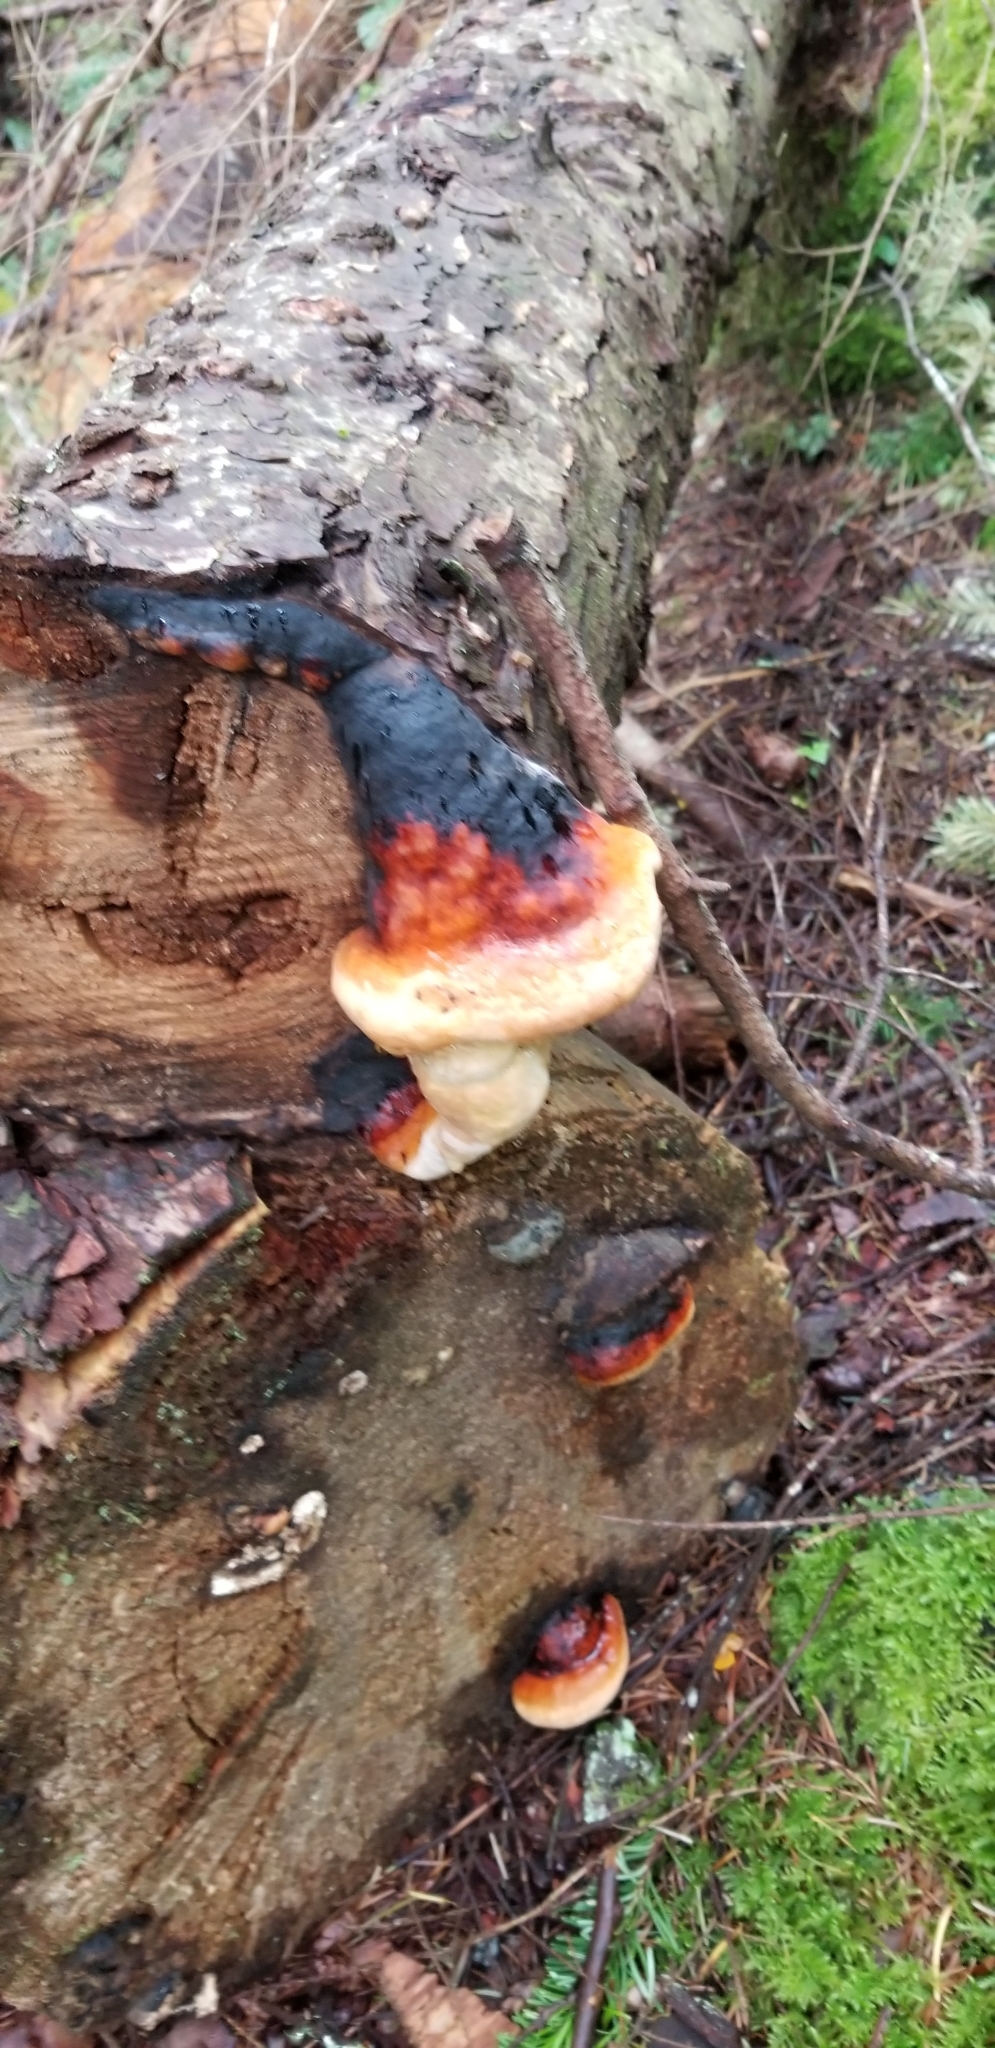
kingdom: Fungi
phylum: Basidiomycota
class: Agaricomycetes
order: Polyporales
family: Fomitopsidaceae
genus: Fomitopsis
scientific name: Fomitopsis mounceae
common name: Northern red belt
